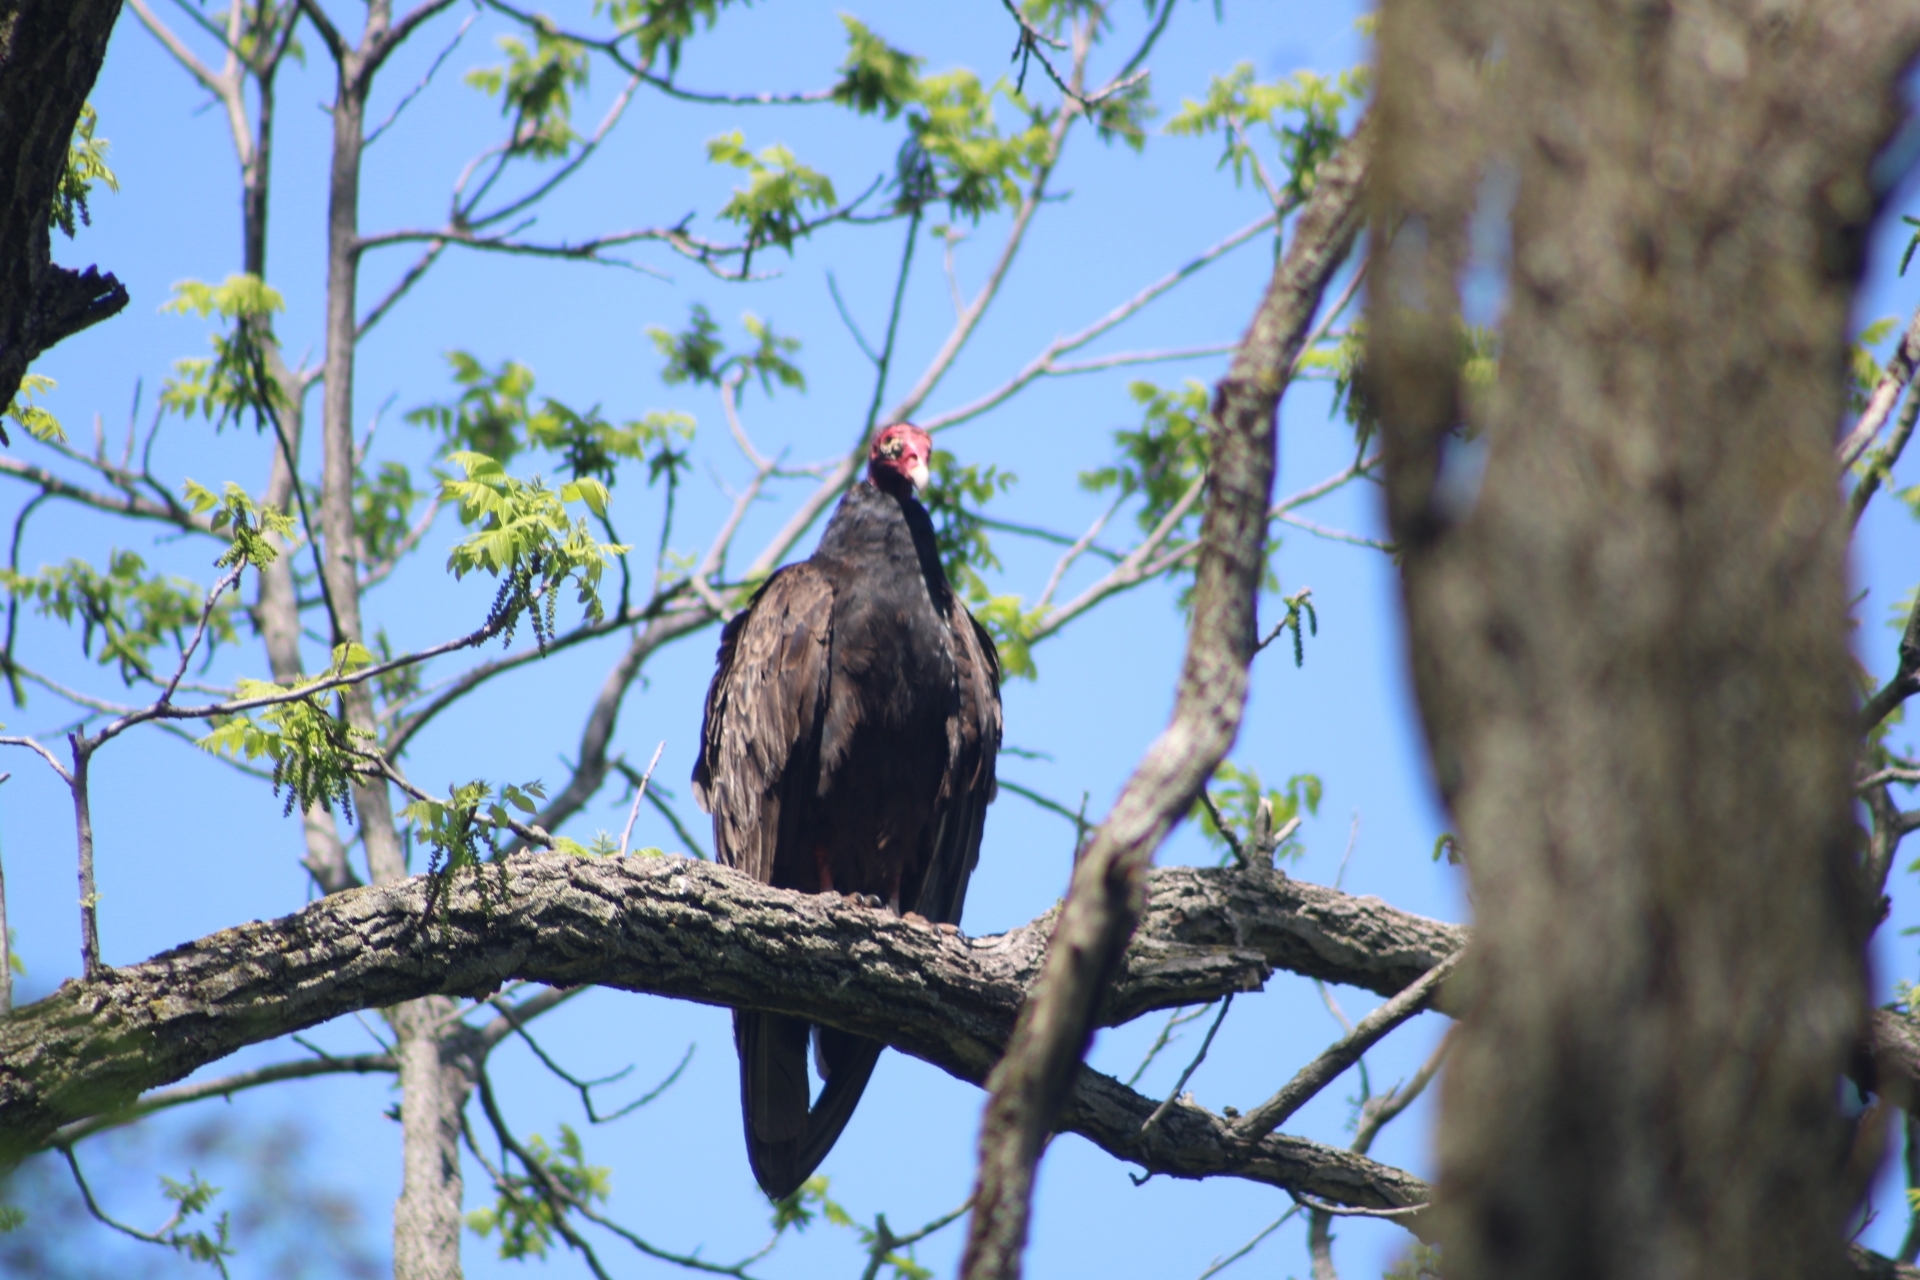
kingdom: Animalia
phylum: Chordata
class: Aves
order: Accipitriformes
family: Cathartidae
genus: Cathartes
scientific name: Cathartes aura
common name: Turkey vulture
